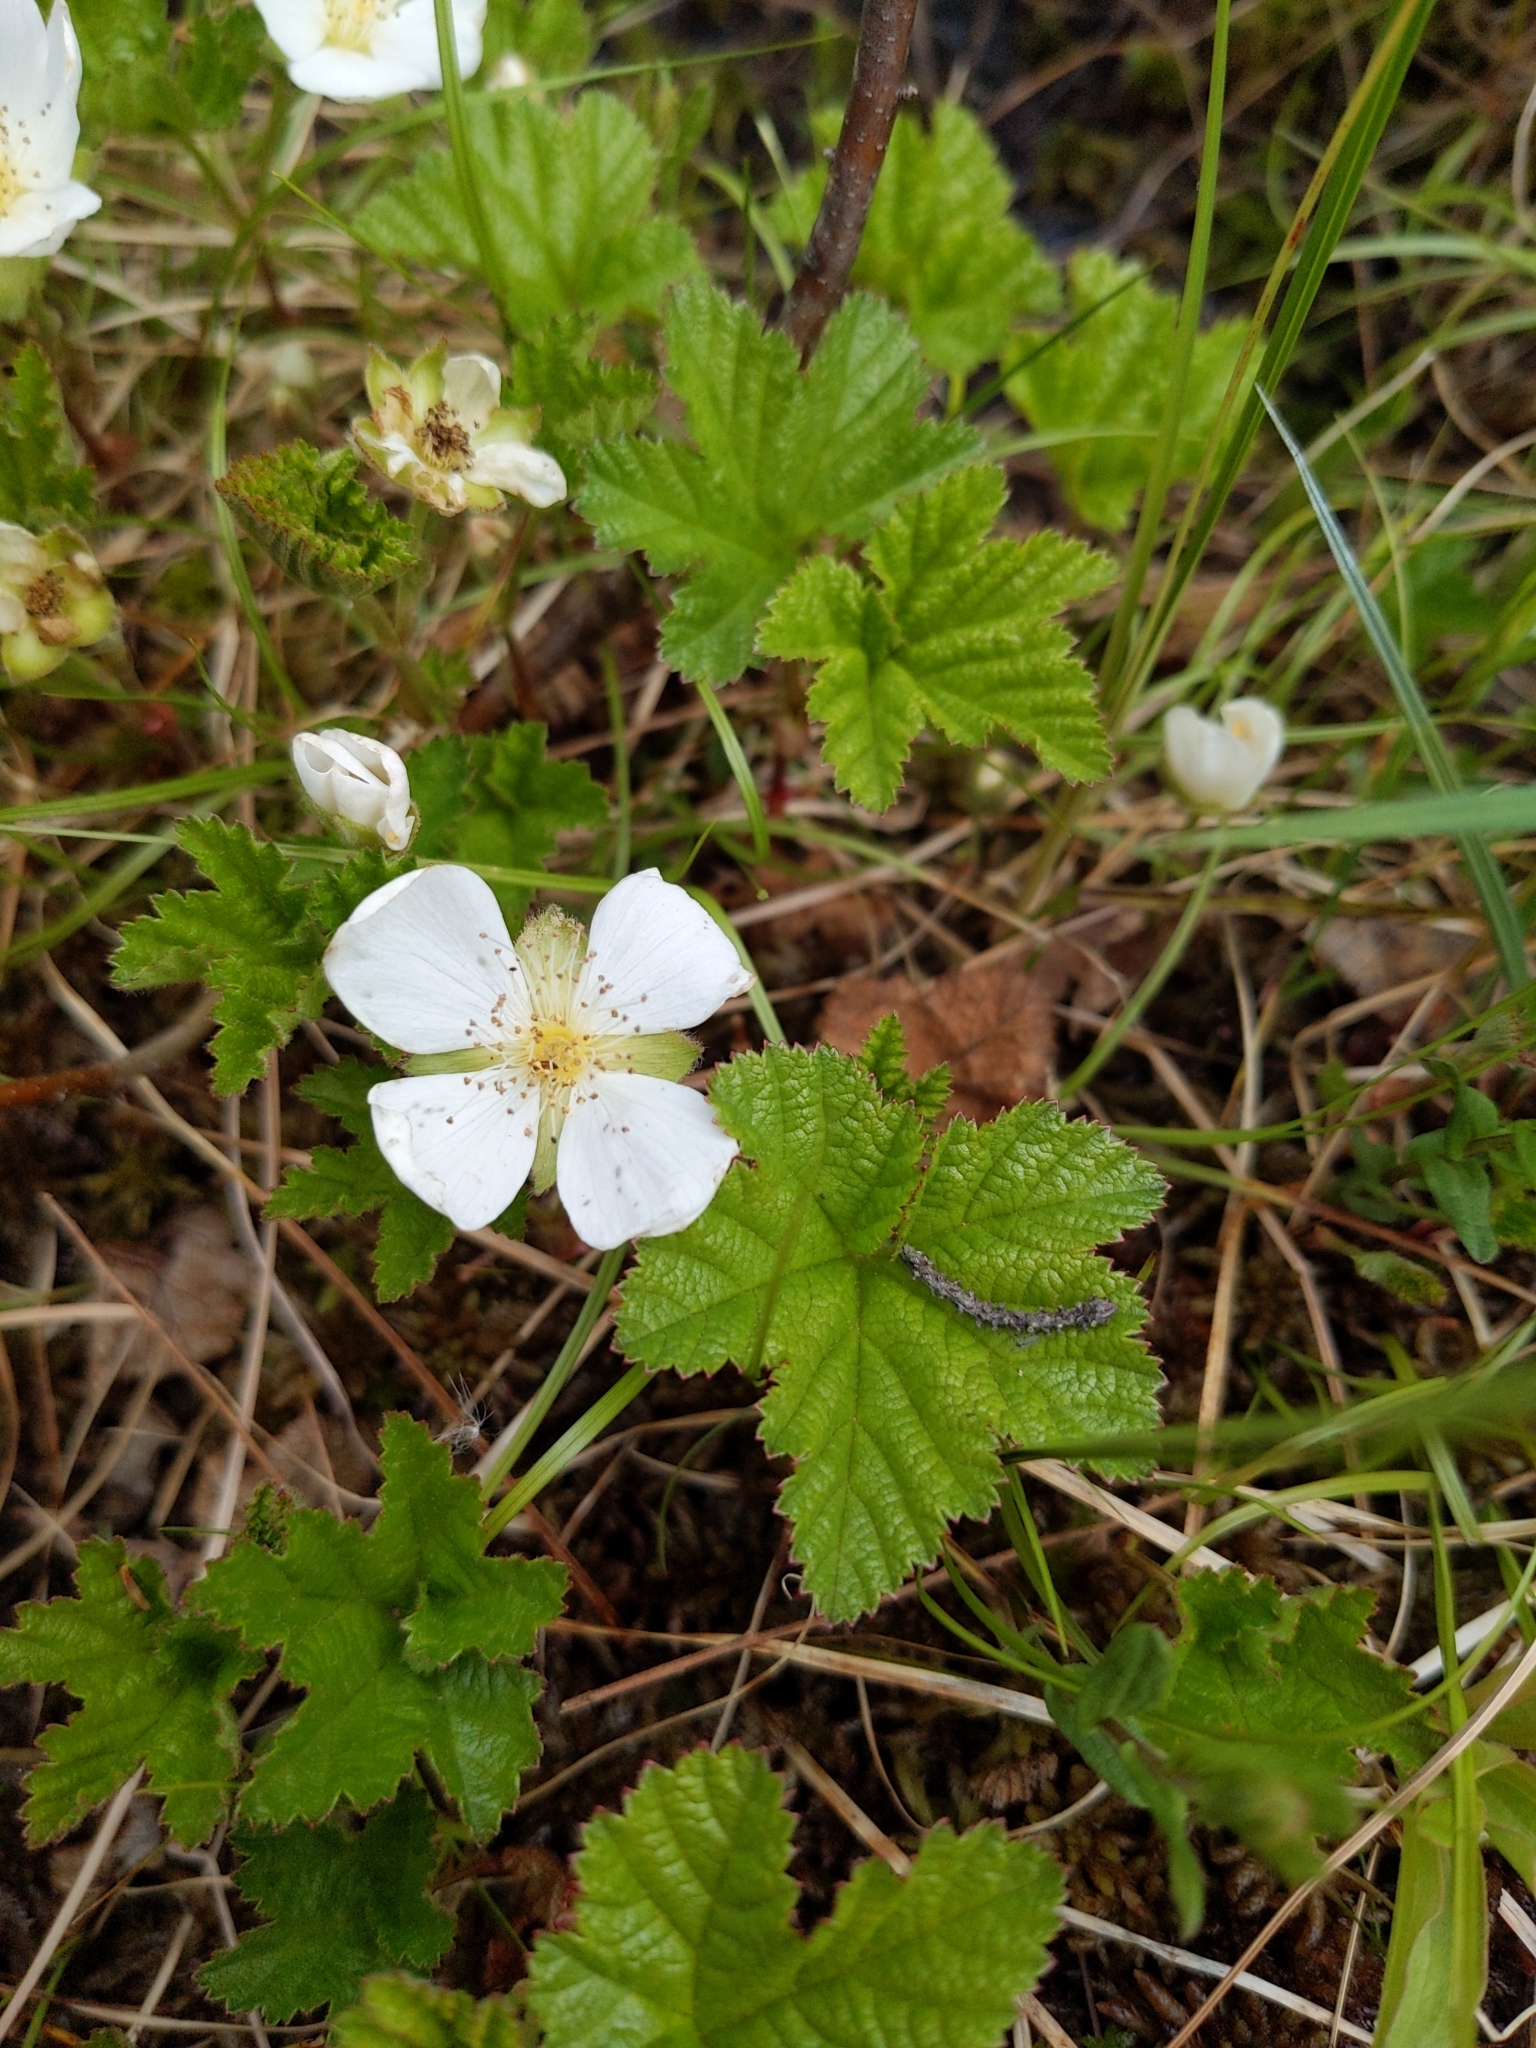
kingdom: Plantae
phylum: Tracheophyta
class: Magnoliopsida
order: Rosales
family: Rosaceae
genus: Rubus
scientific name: Rubus chamaemorus
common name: Cloudberry
